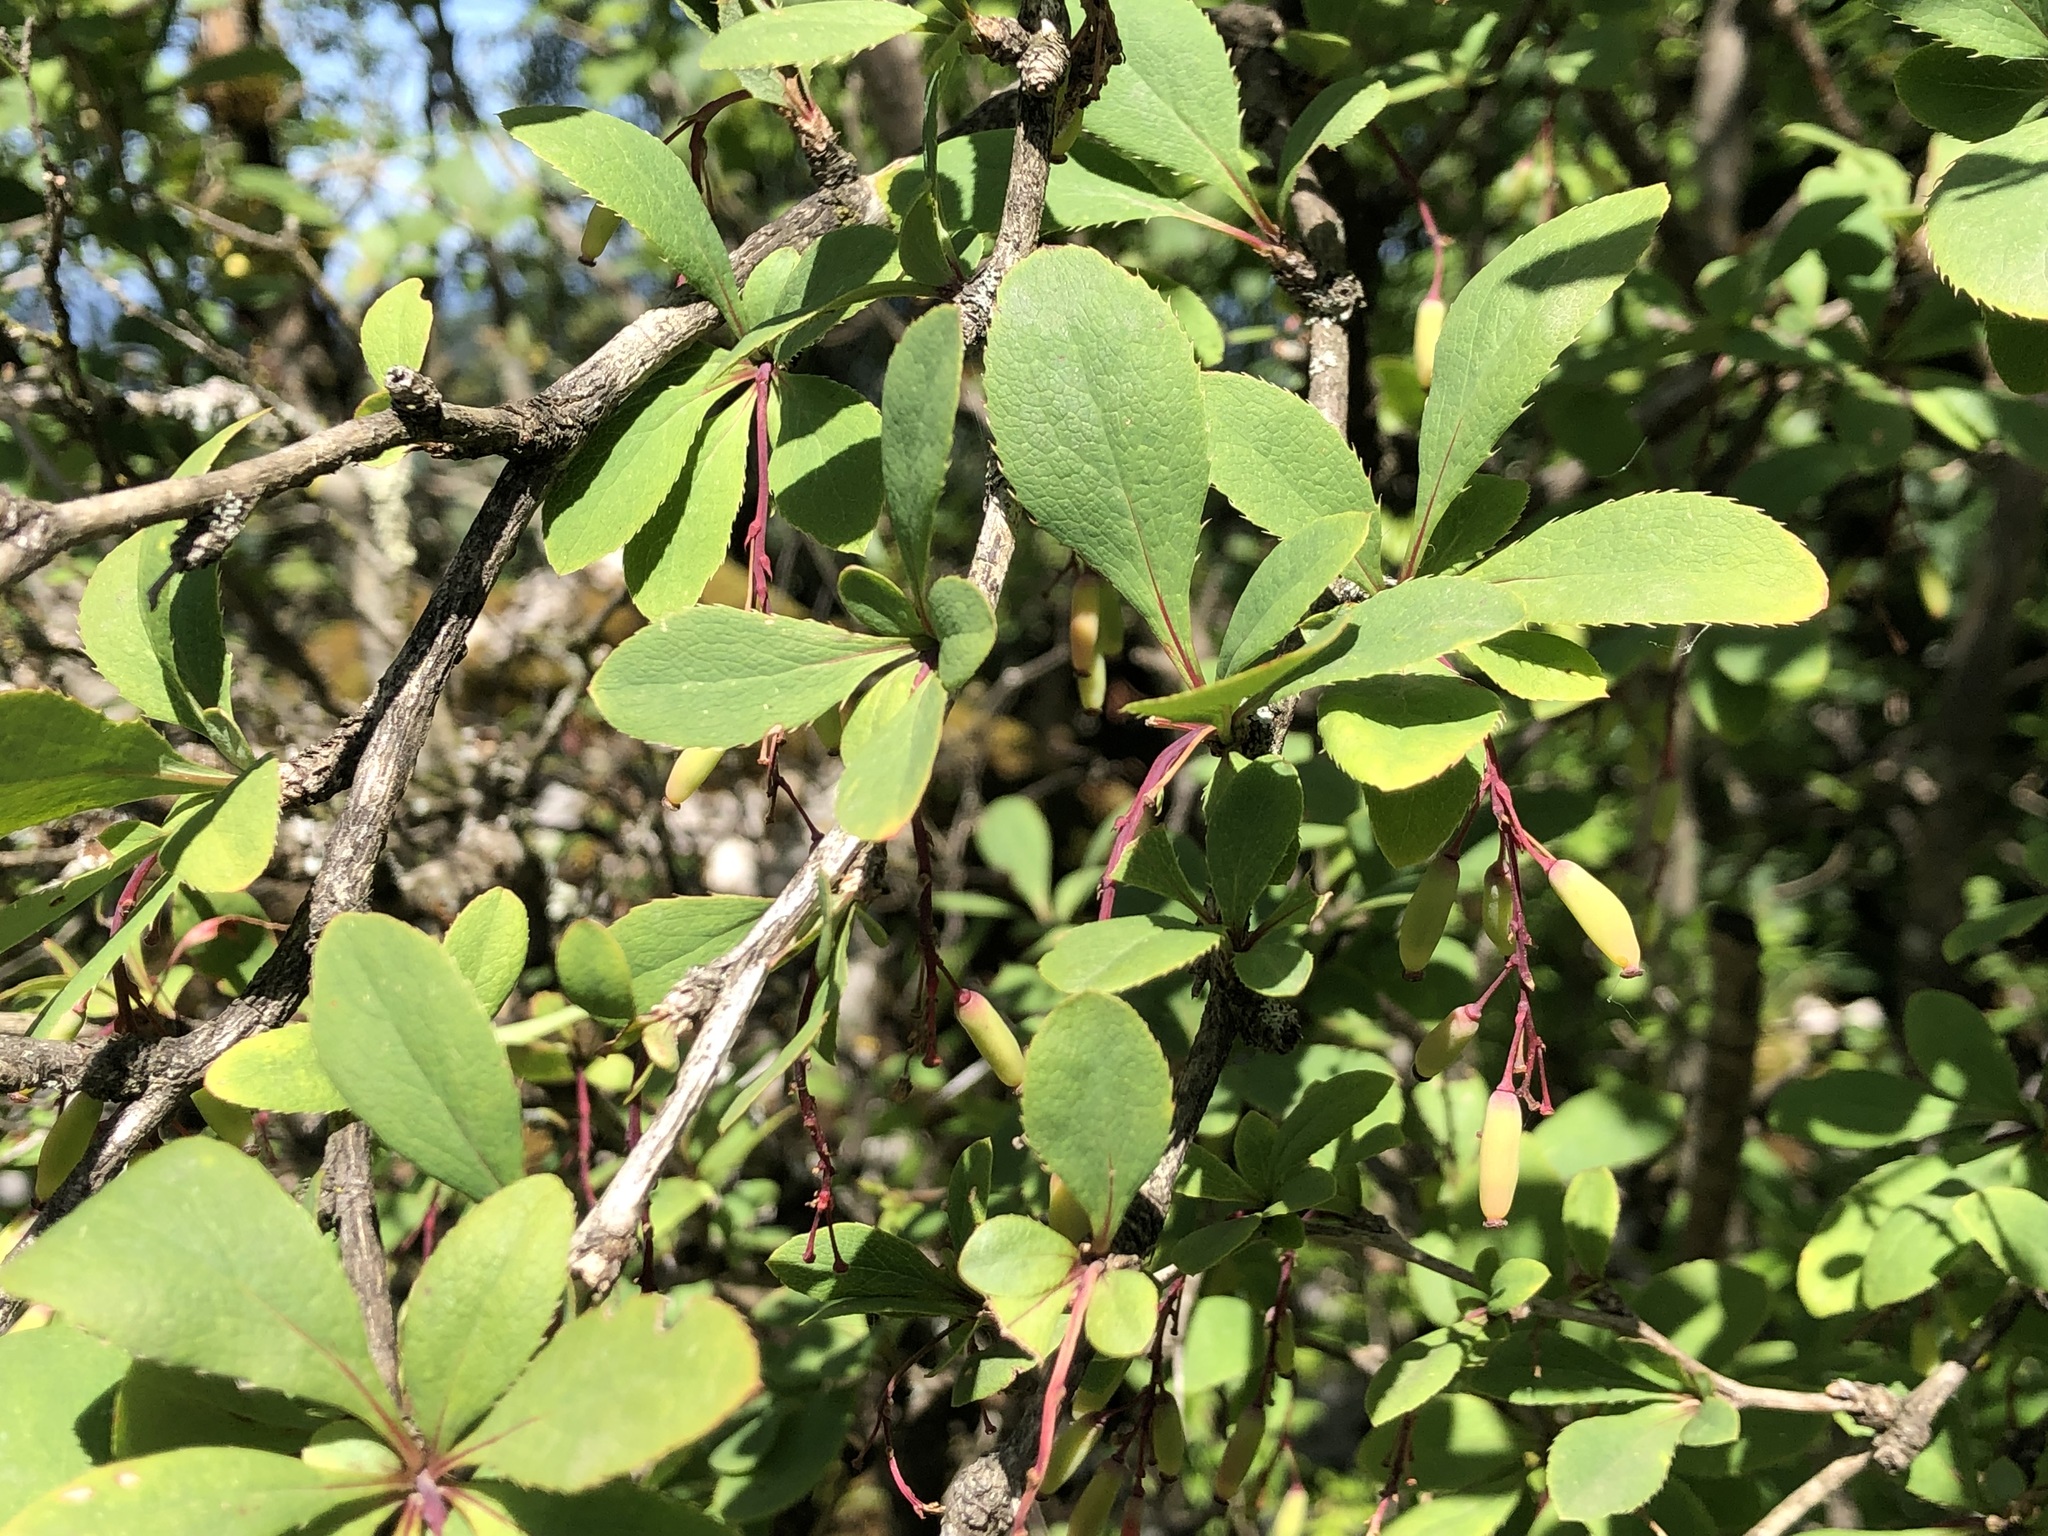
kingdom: Plantae
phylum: Tracheophyta
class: Magnoliopsida
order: Ranunculales
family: Berberidaceae
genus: Berberis
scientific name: Berberis vulgaris
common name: Barberry
